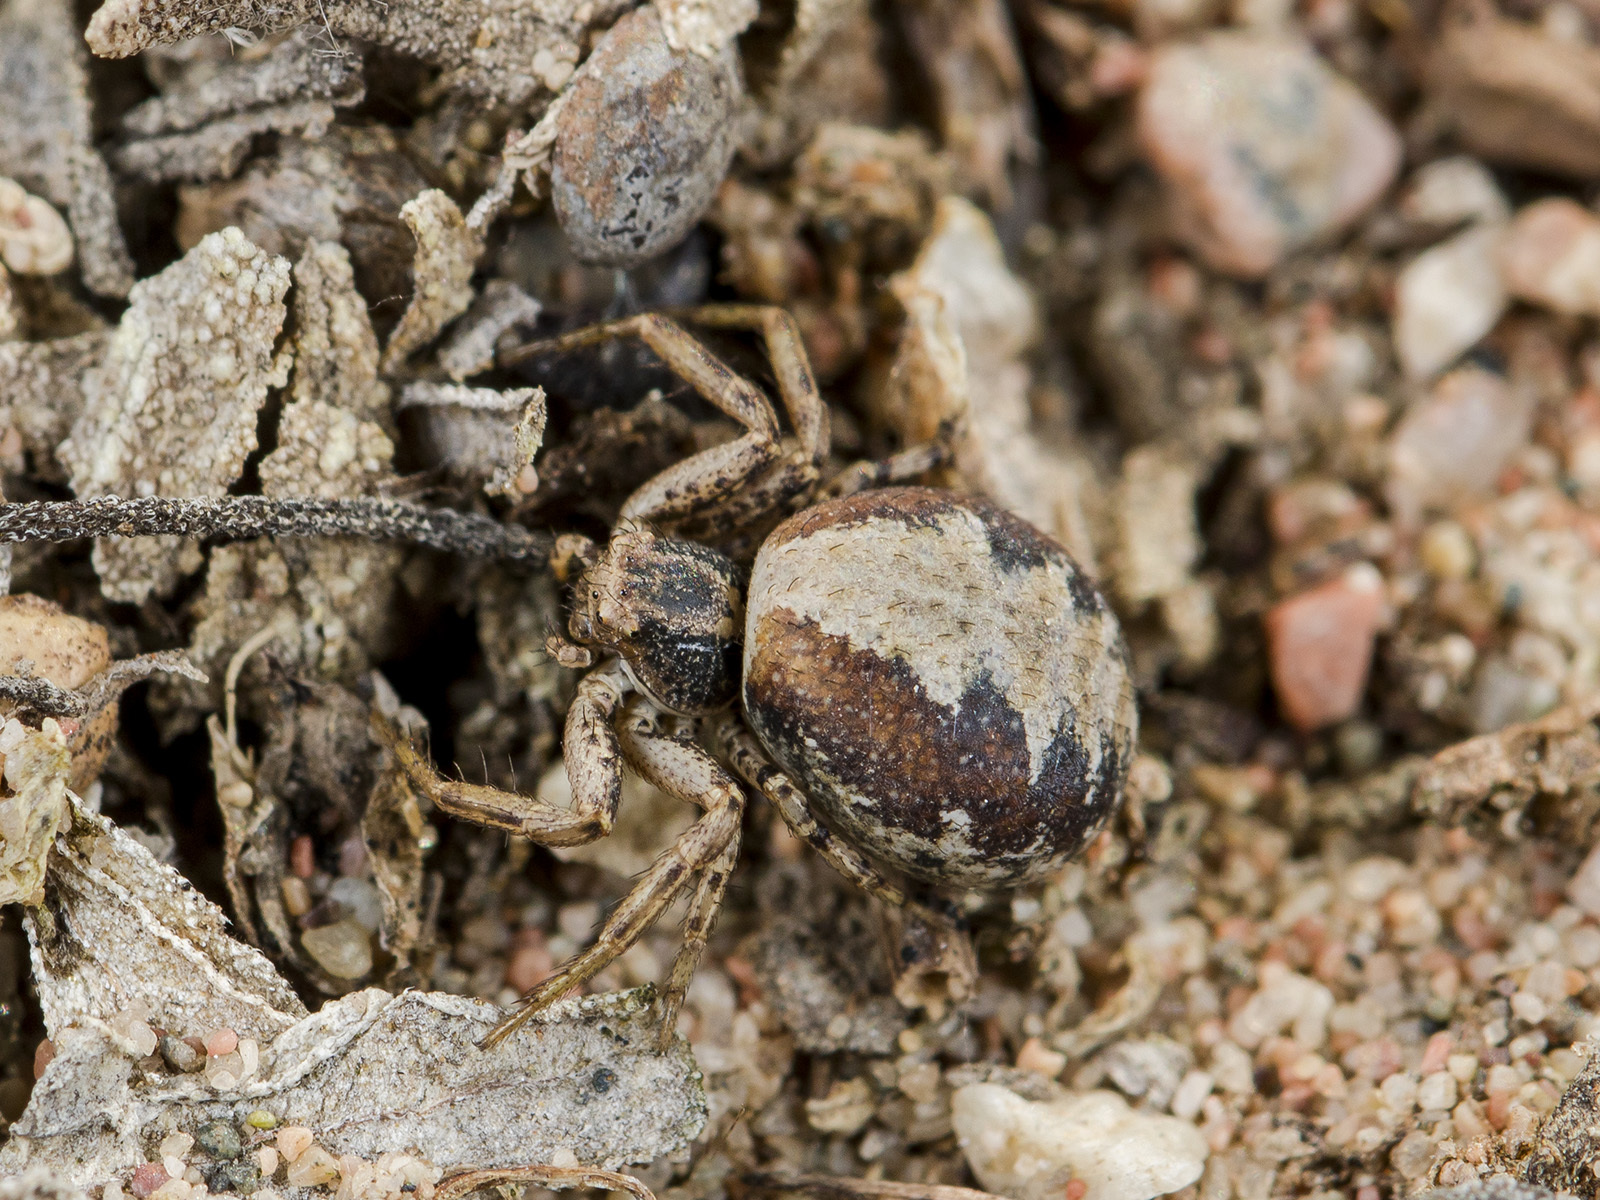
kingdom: Animalia
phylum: Arthropoda
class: Arachnida
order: Araneae
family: Thomisidae
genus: Psammitis
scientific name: Psammitis minor
